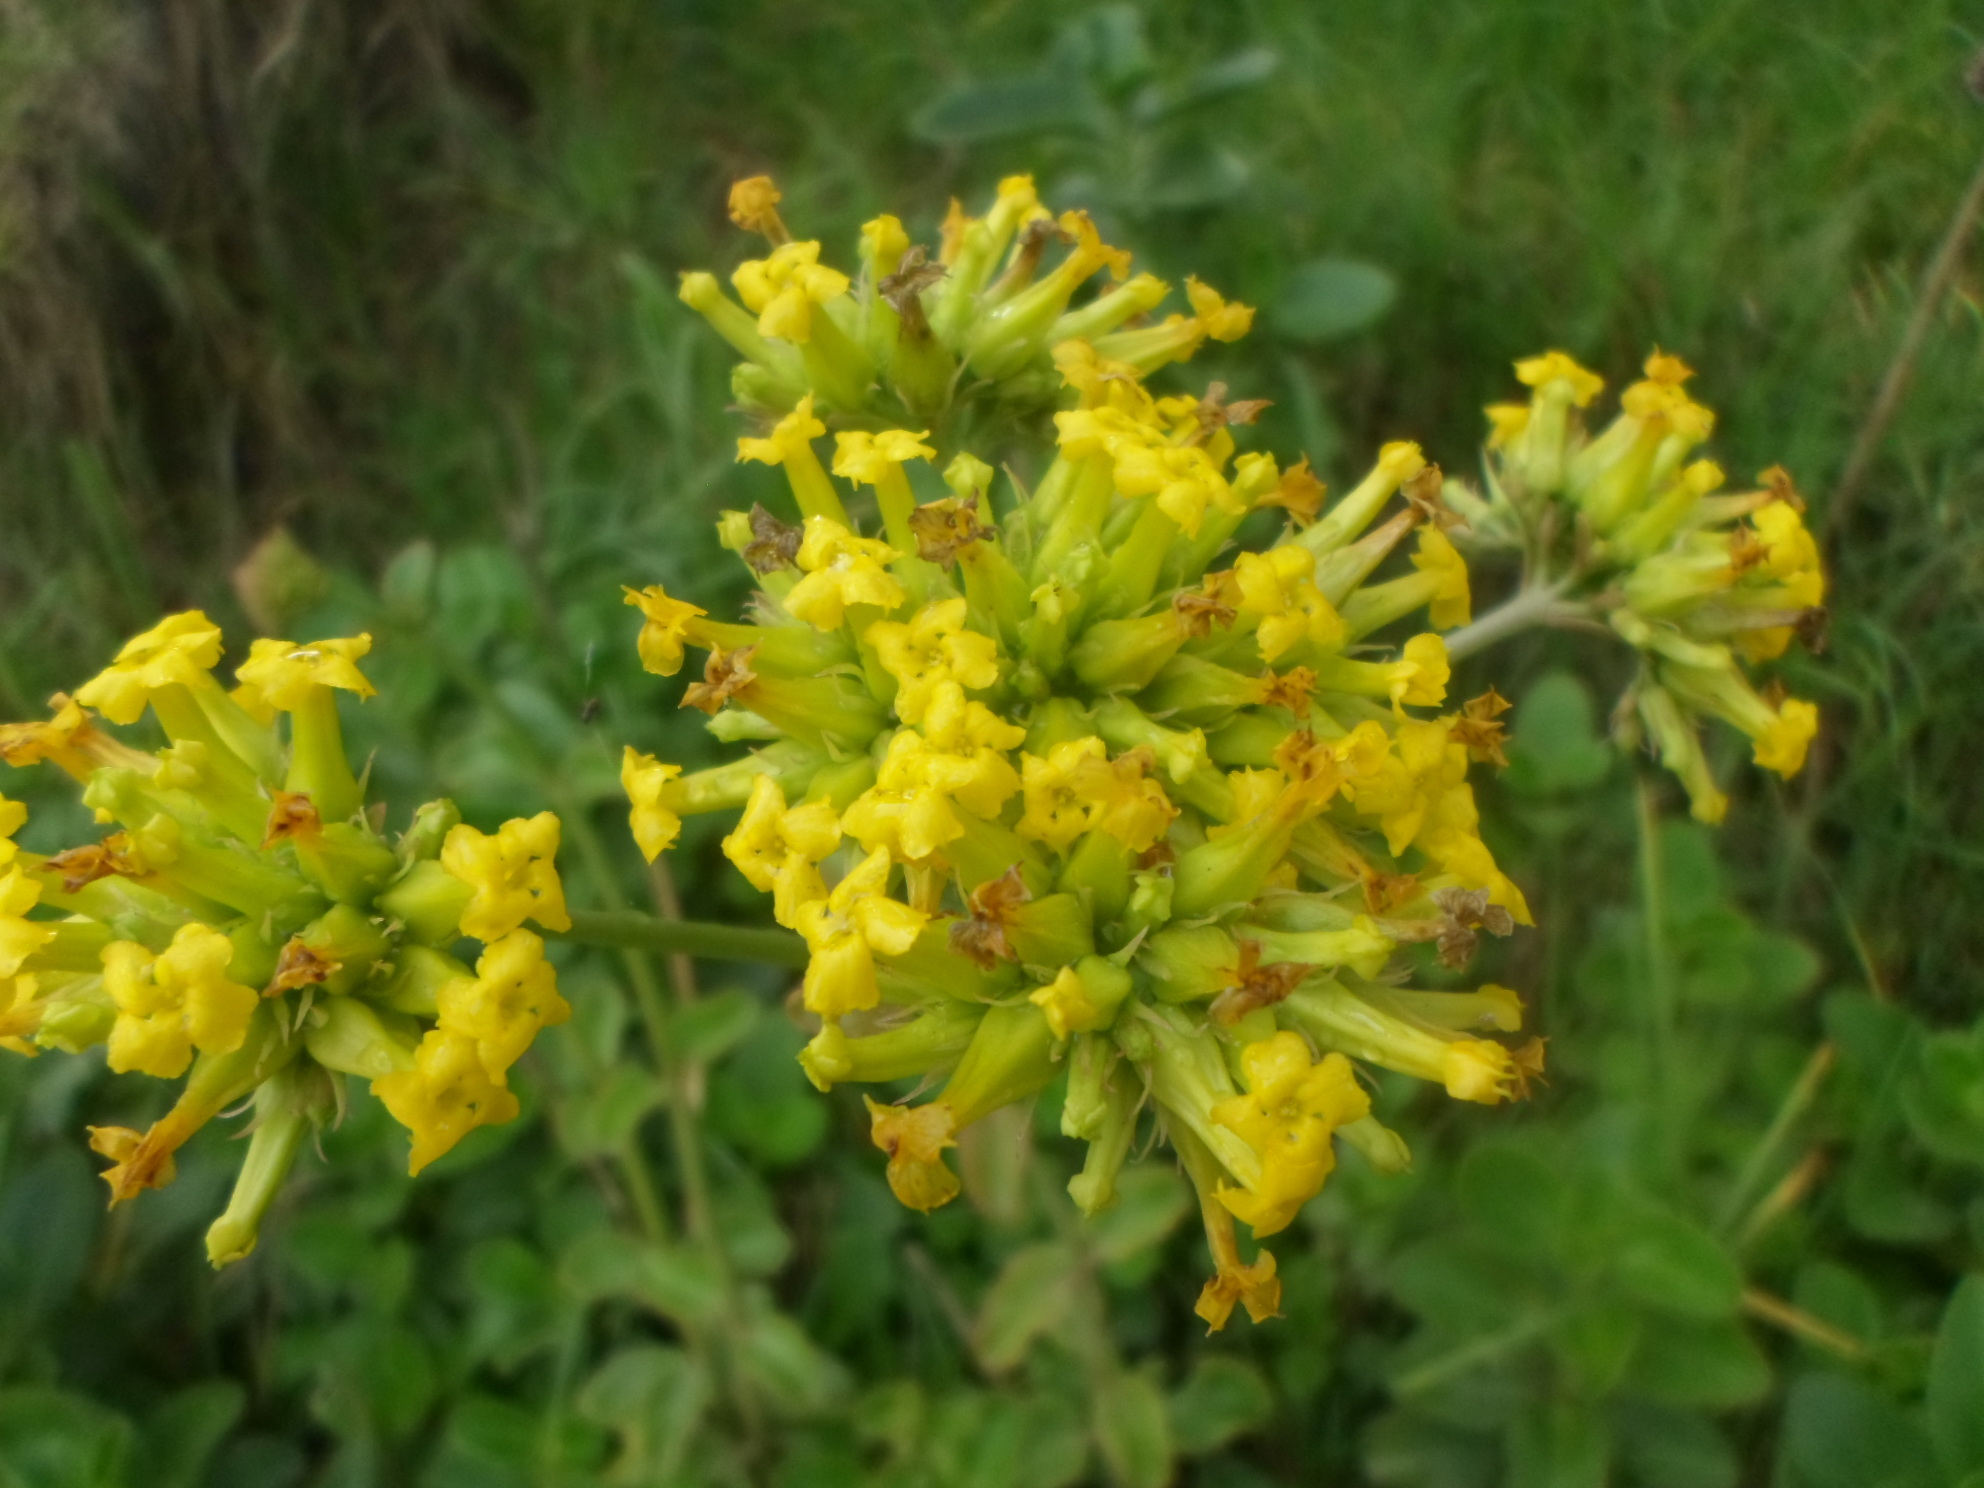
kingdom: Plantae
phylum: Tracheophyta
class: Magnoliopsida
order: Saxifragales
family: Crassulaceae
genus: Kalanchoe
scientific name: Kalanchoe densiflora
